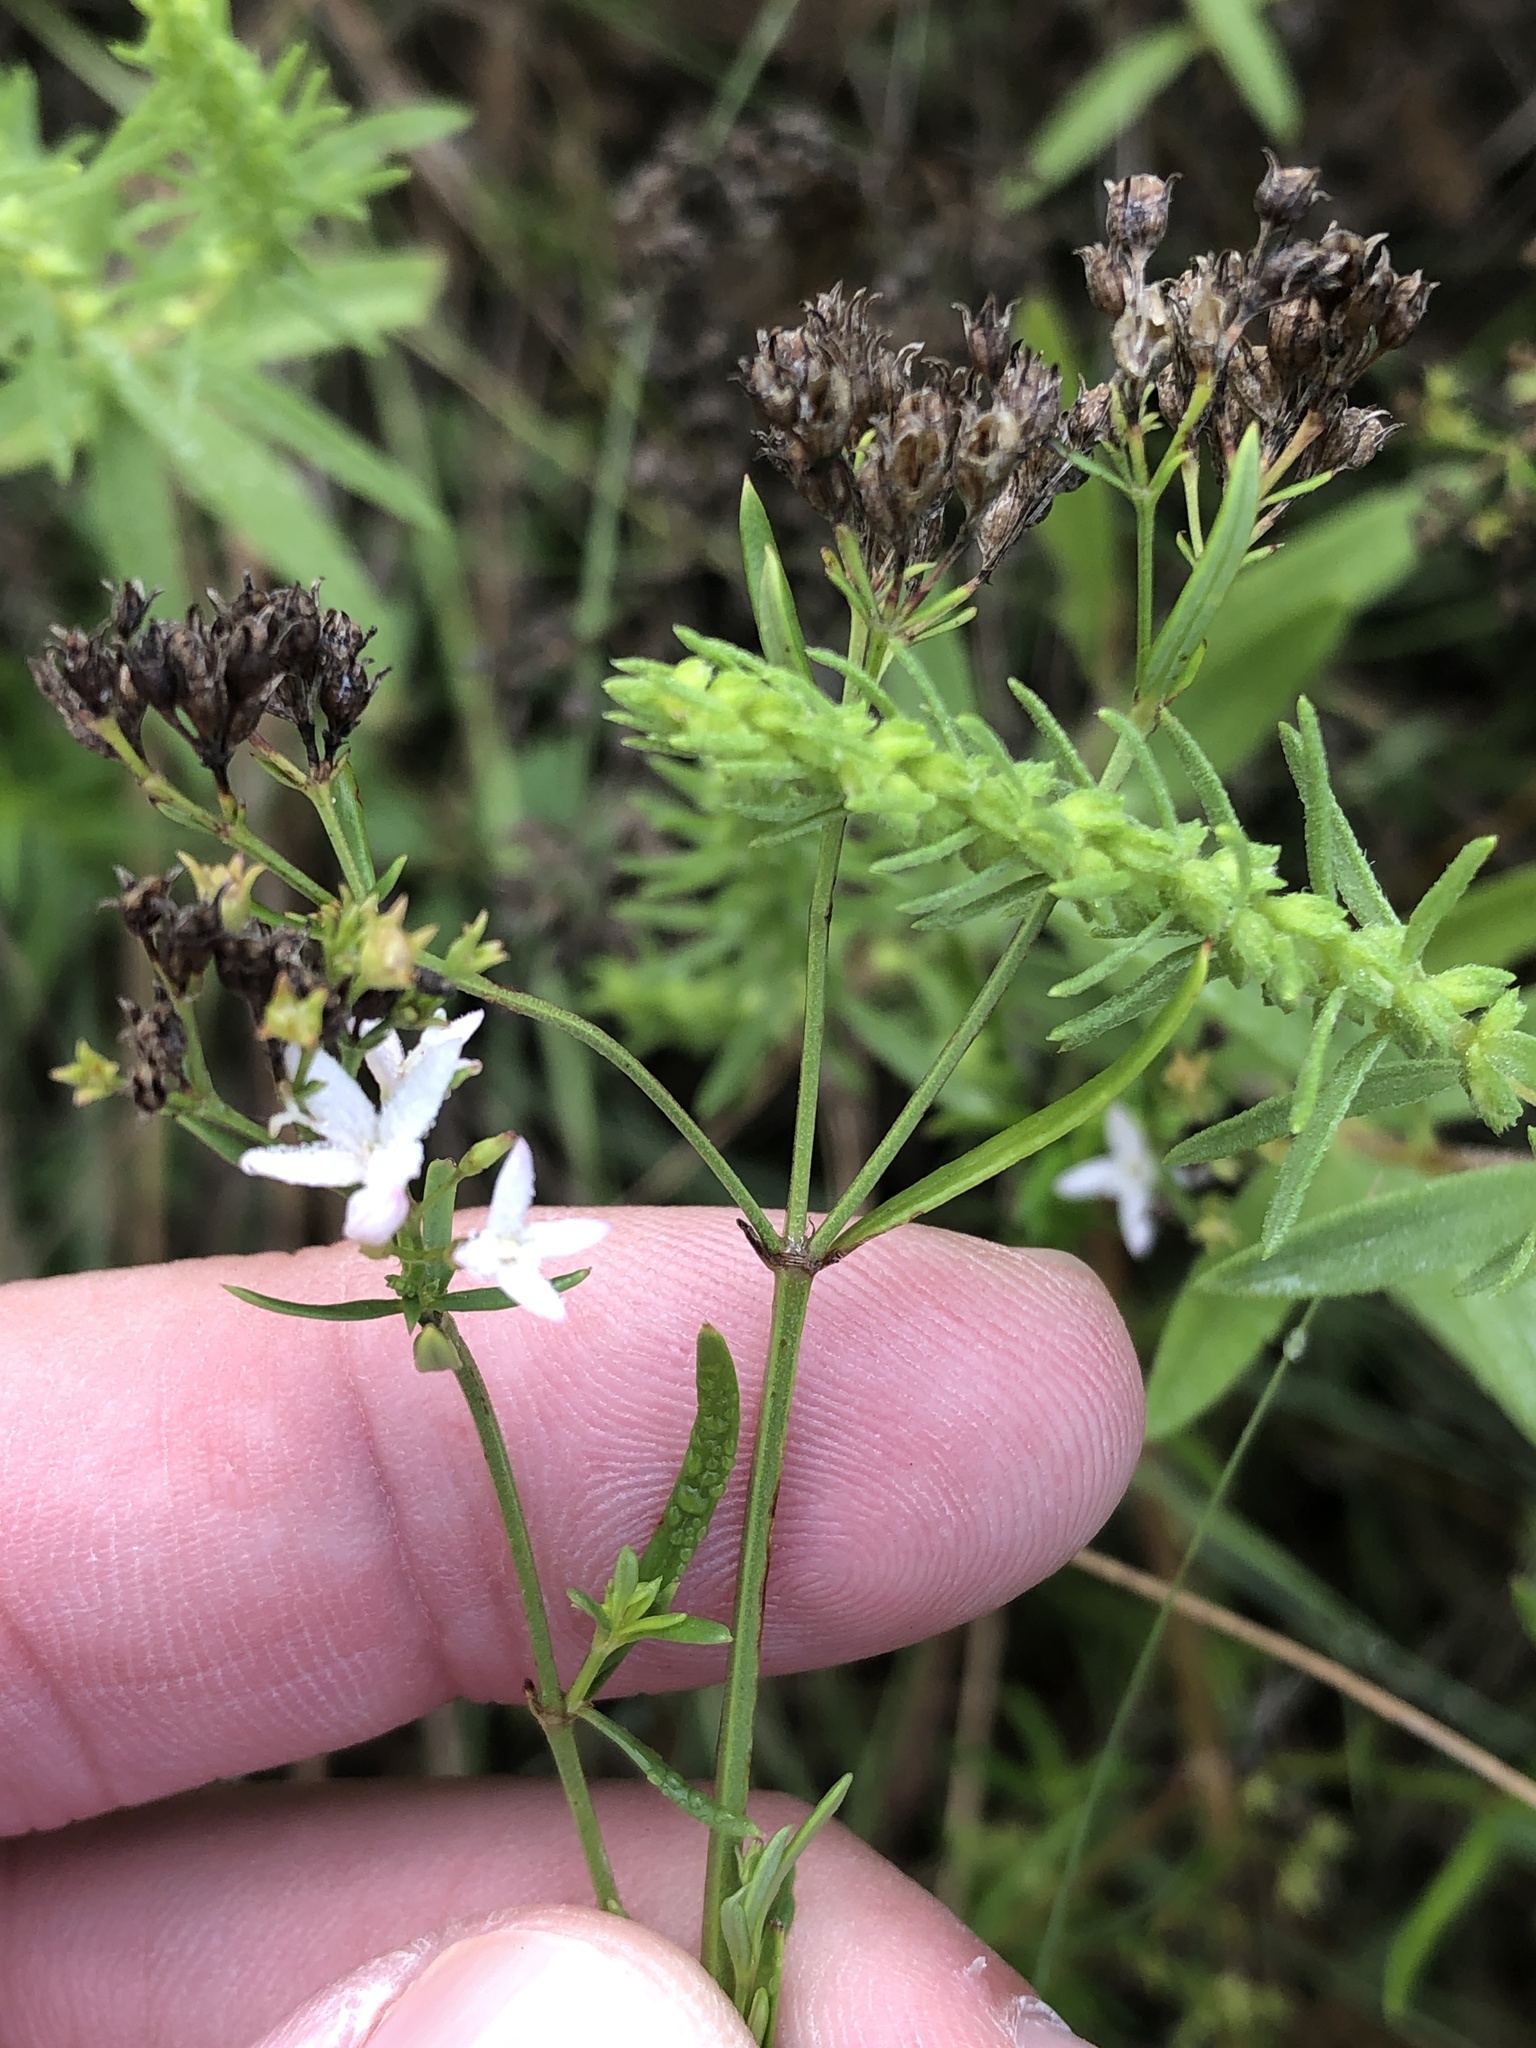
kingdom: Plantae
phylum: Tracheophyta
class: Magnoliopsida
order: Gentianales
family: Rubiaceae
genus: Stenaria
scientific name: Stenaria nigricans
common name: Diamondflowers
